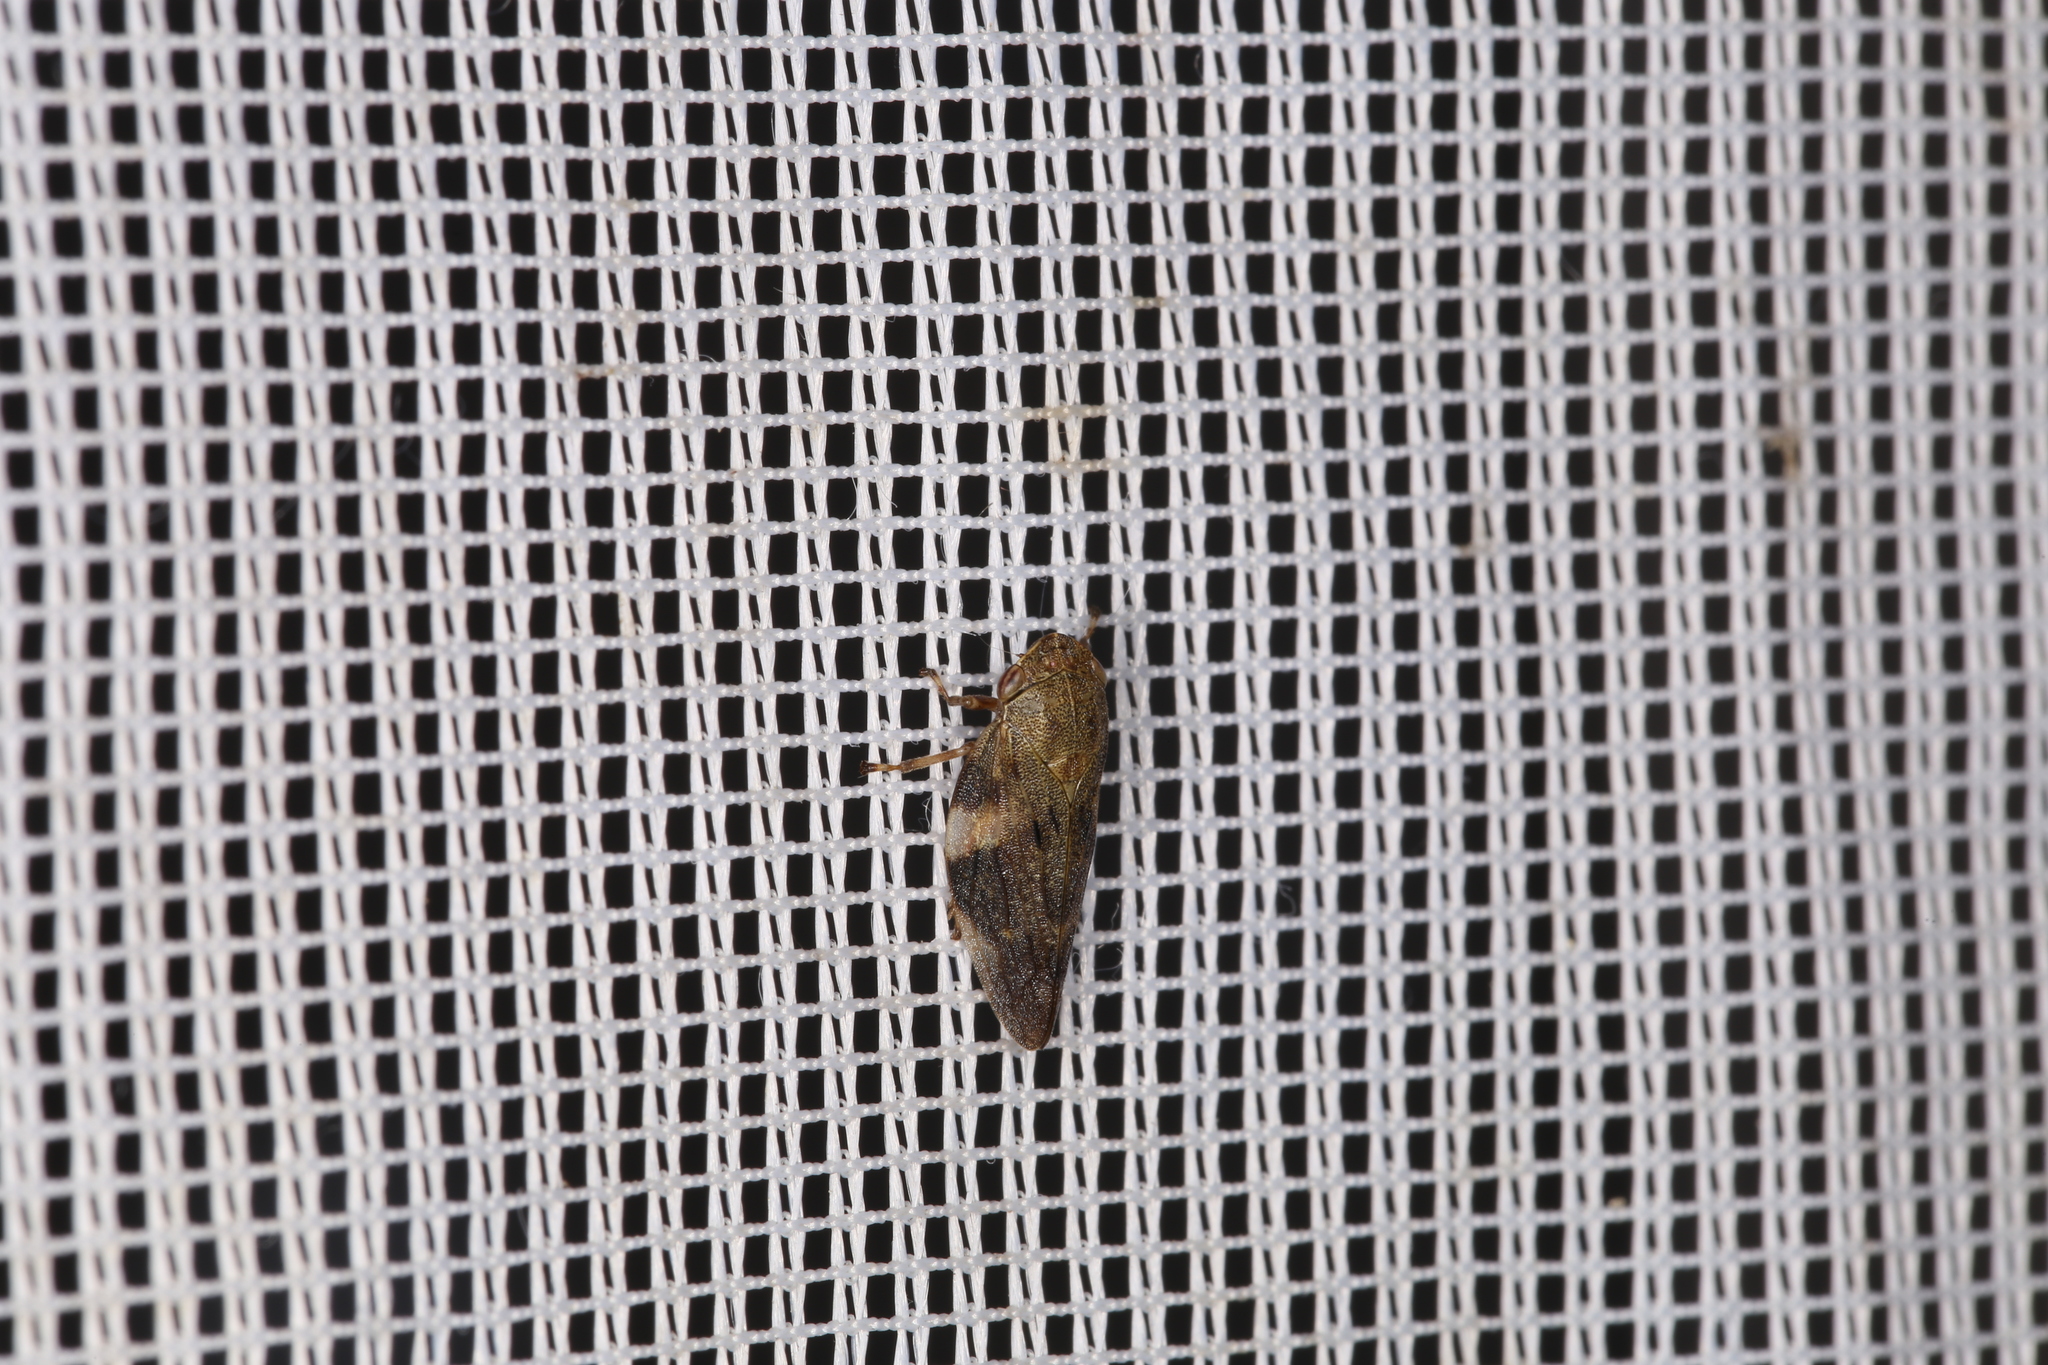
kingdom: Animalia
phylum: Arthropoda
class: Insecta
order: Hemiptera
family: Aphrophoridae
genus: Aphrophora
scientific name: Aphrophora alni
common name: European alder spittlebug
